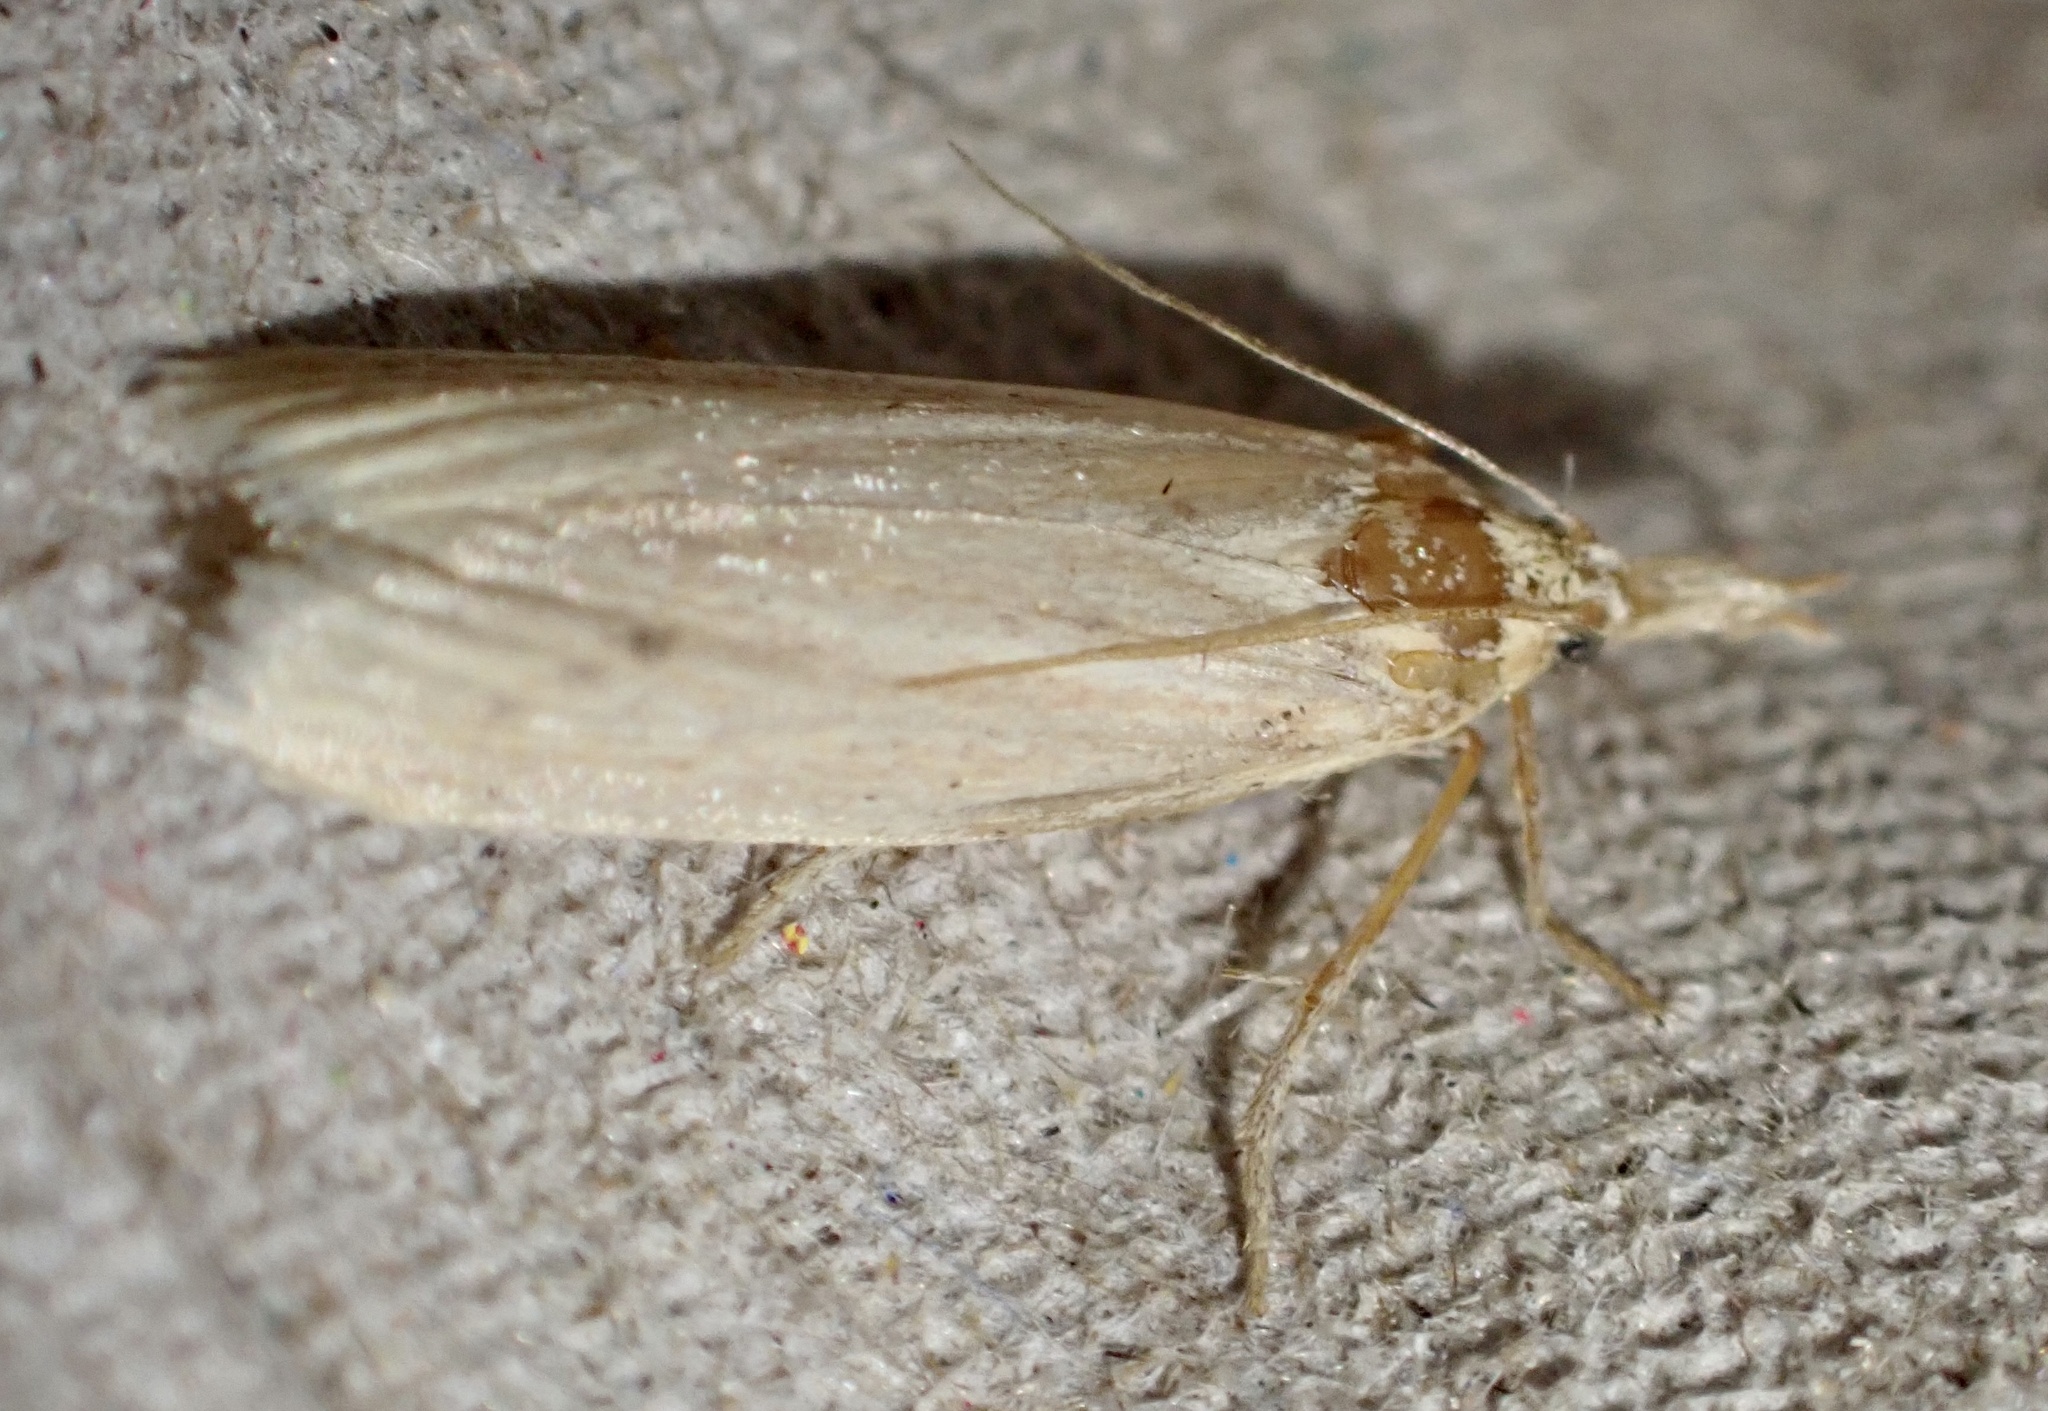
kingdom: Animalia
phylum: Arthropoda
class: Insecta
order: Lepidoptera
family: Pyralidae
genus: Ematheudes
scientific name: Ematheudes punctellus
